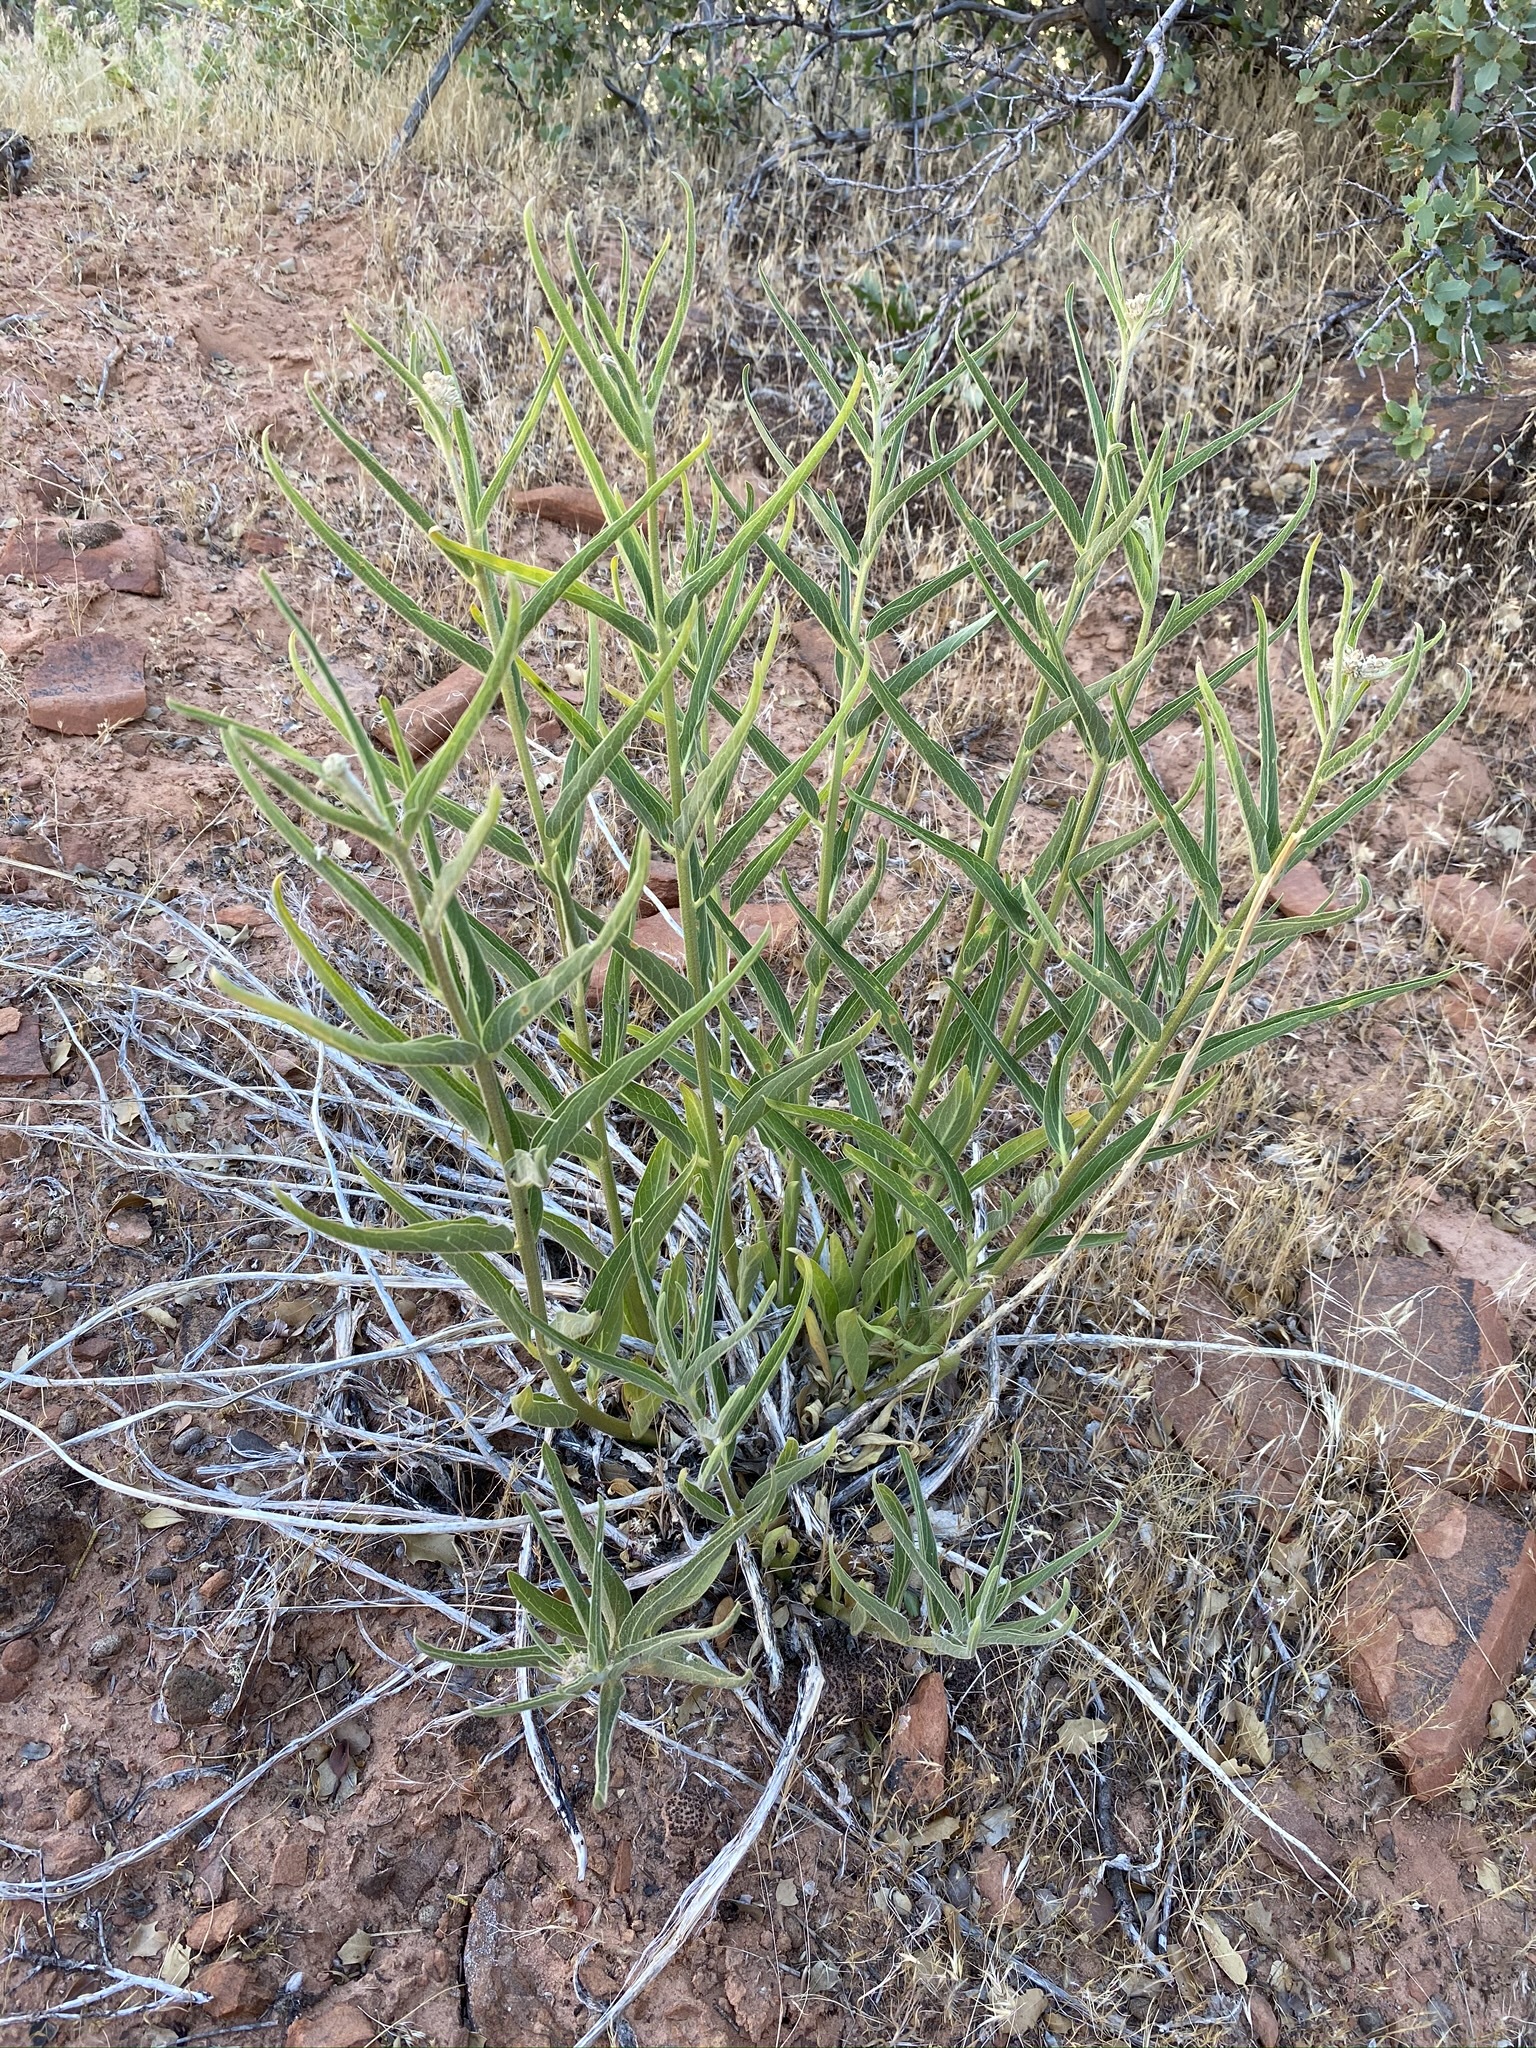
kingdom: Plantae
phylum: Tracheophyta
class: Magnoliopsida
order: Gentianales
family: Apocynaceae
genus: Asclepias
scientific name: Asclepias asperula
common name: Antelope horns
